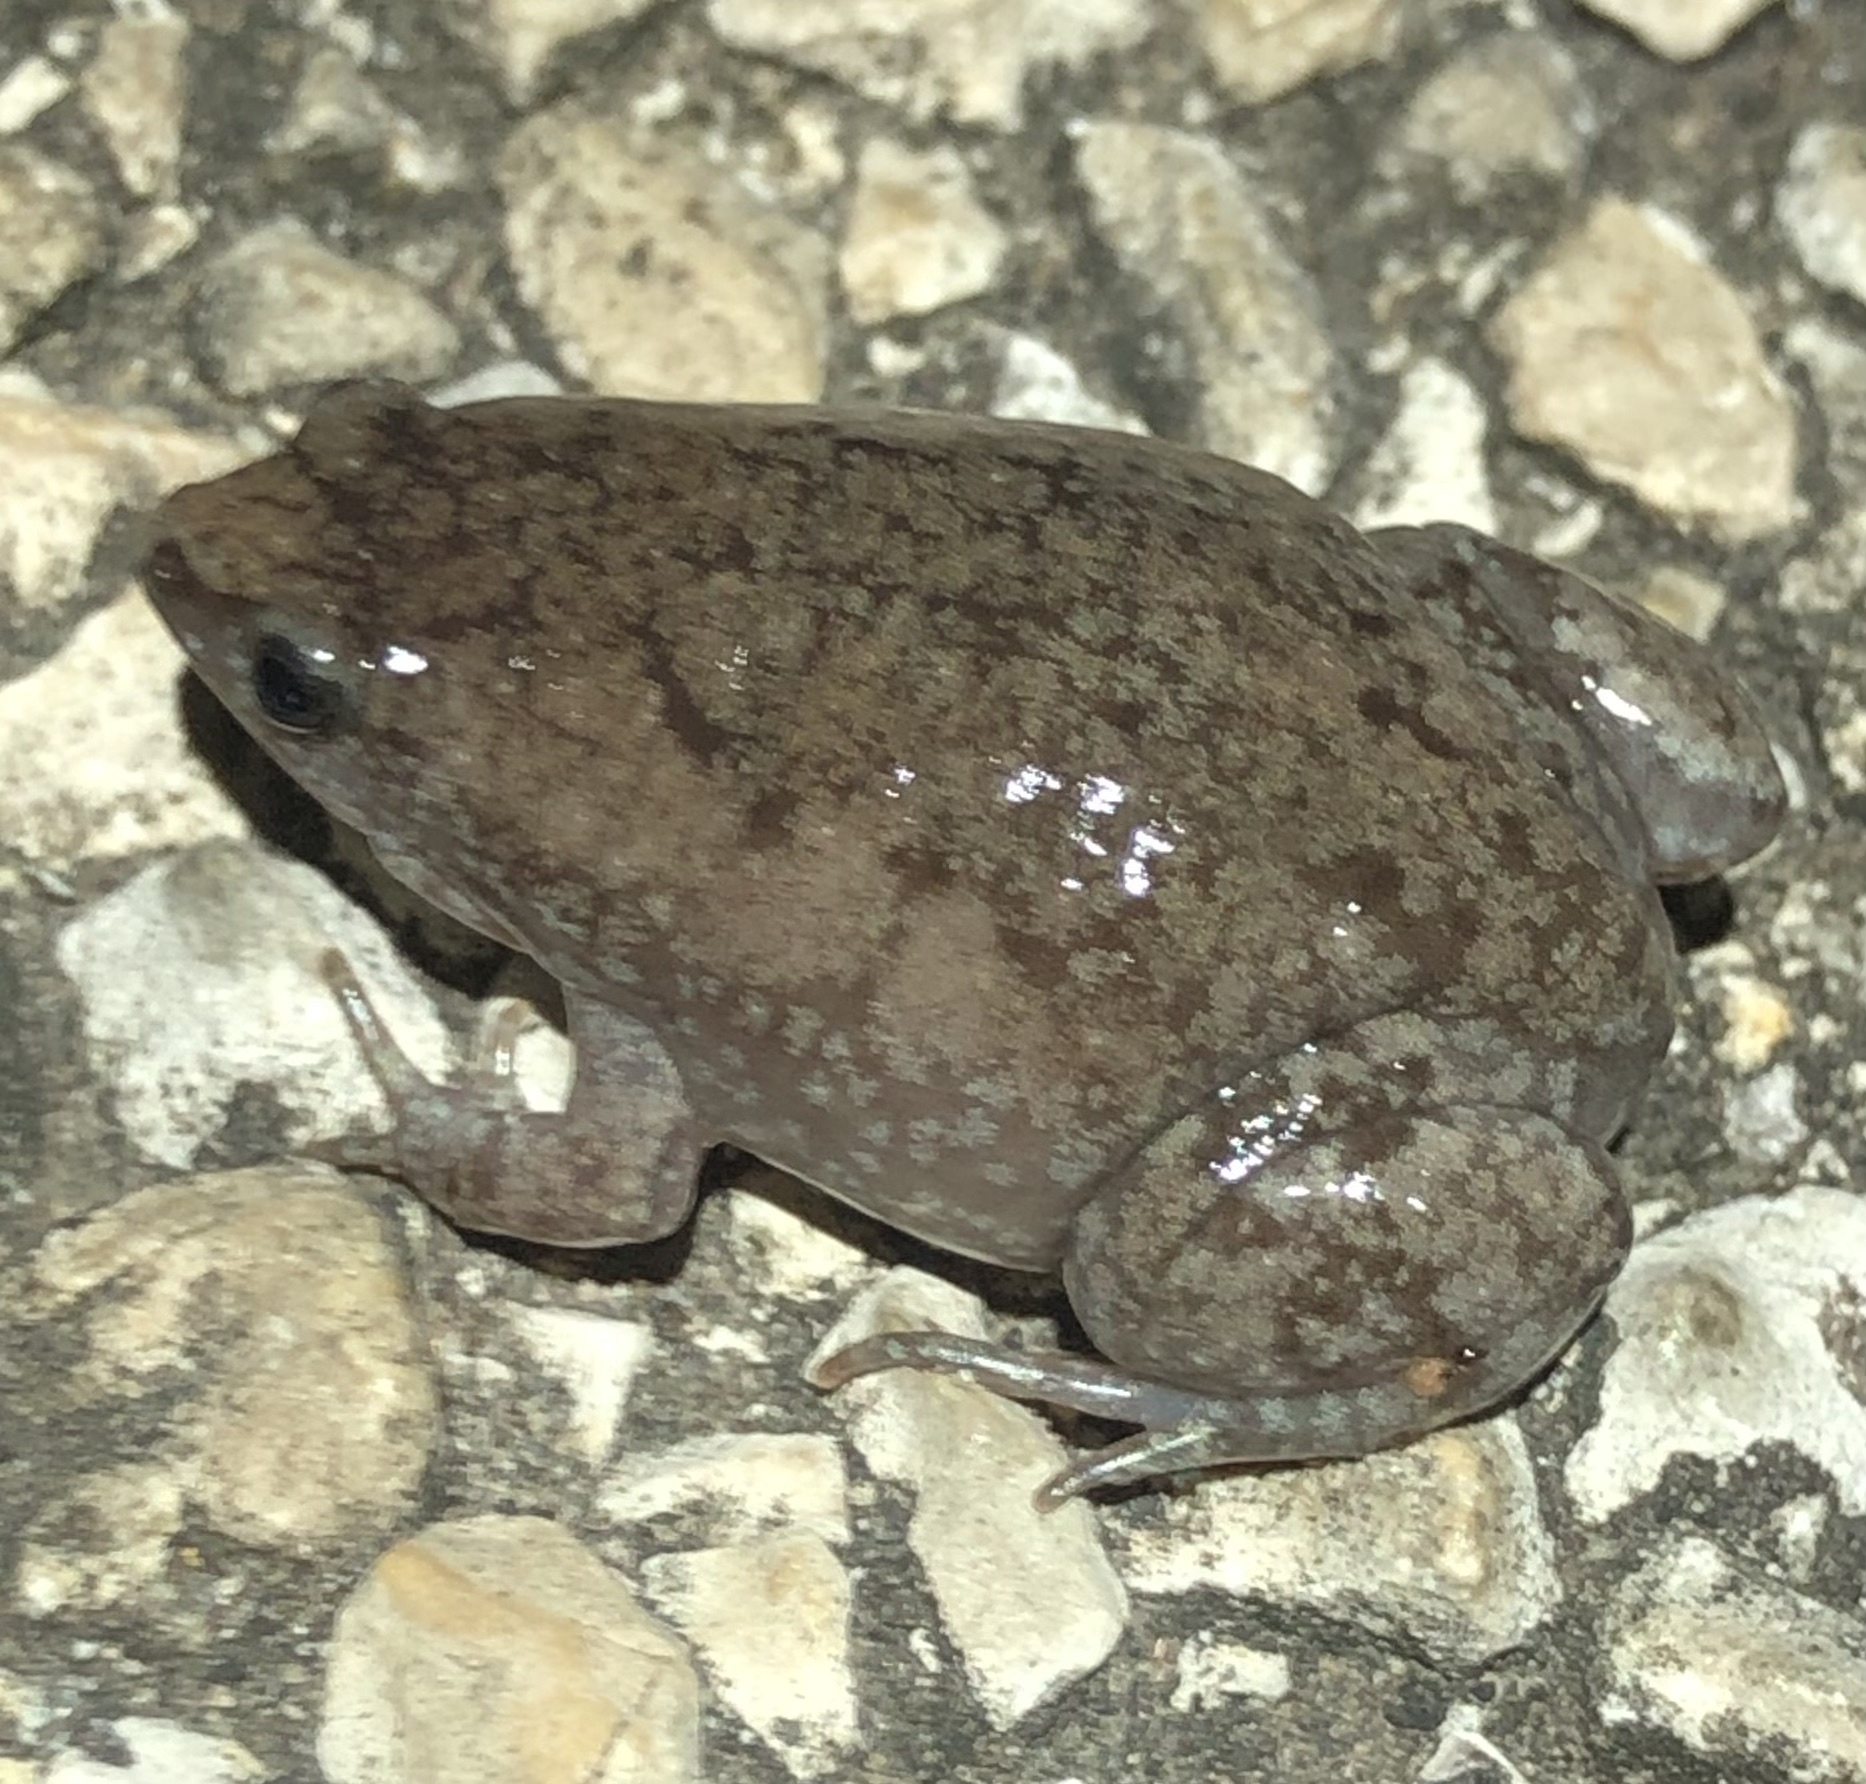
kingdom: Animalia
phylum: Chordata
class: Amphibia
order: Anura
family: Microhylidae
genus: Gastrophryne
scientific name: Gastrophryne carolinensis
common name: Eastern narrowmouth toad
